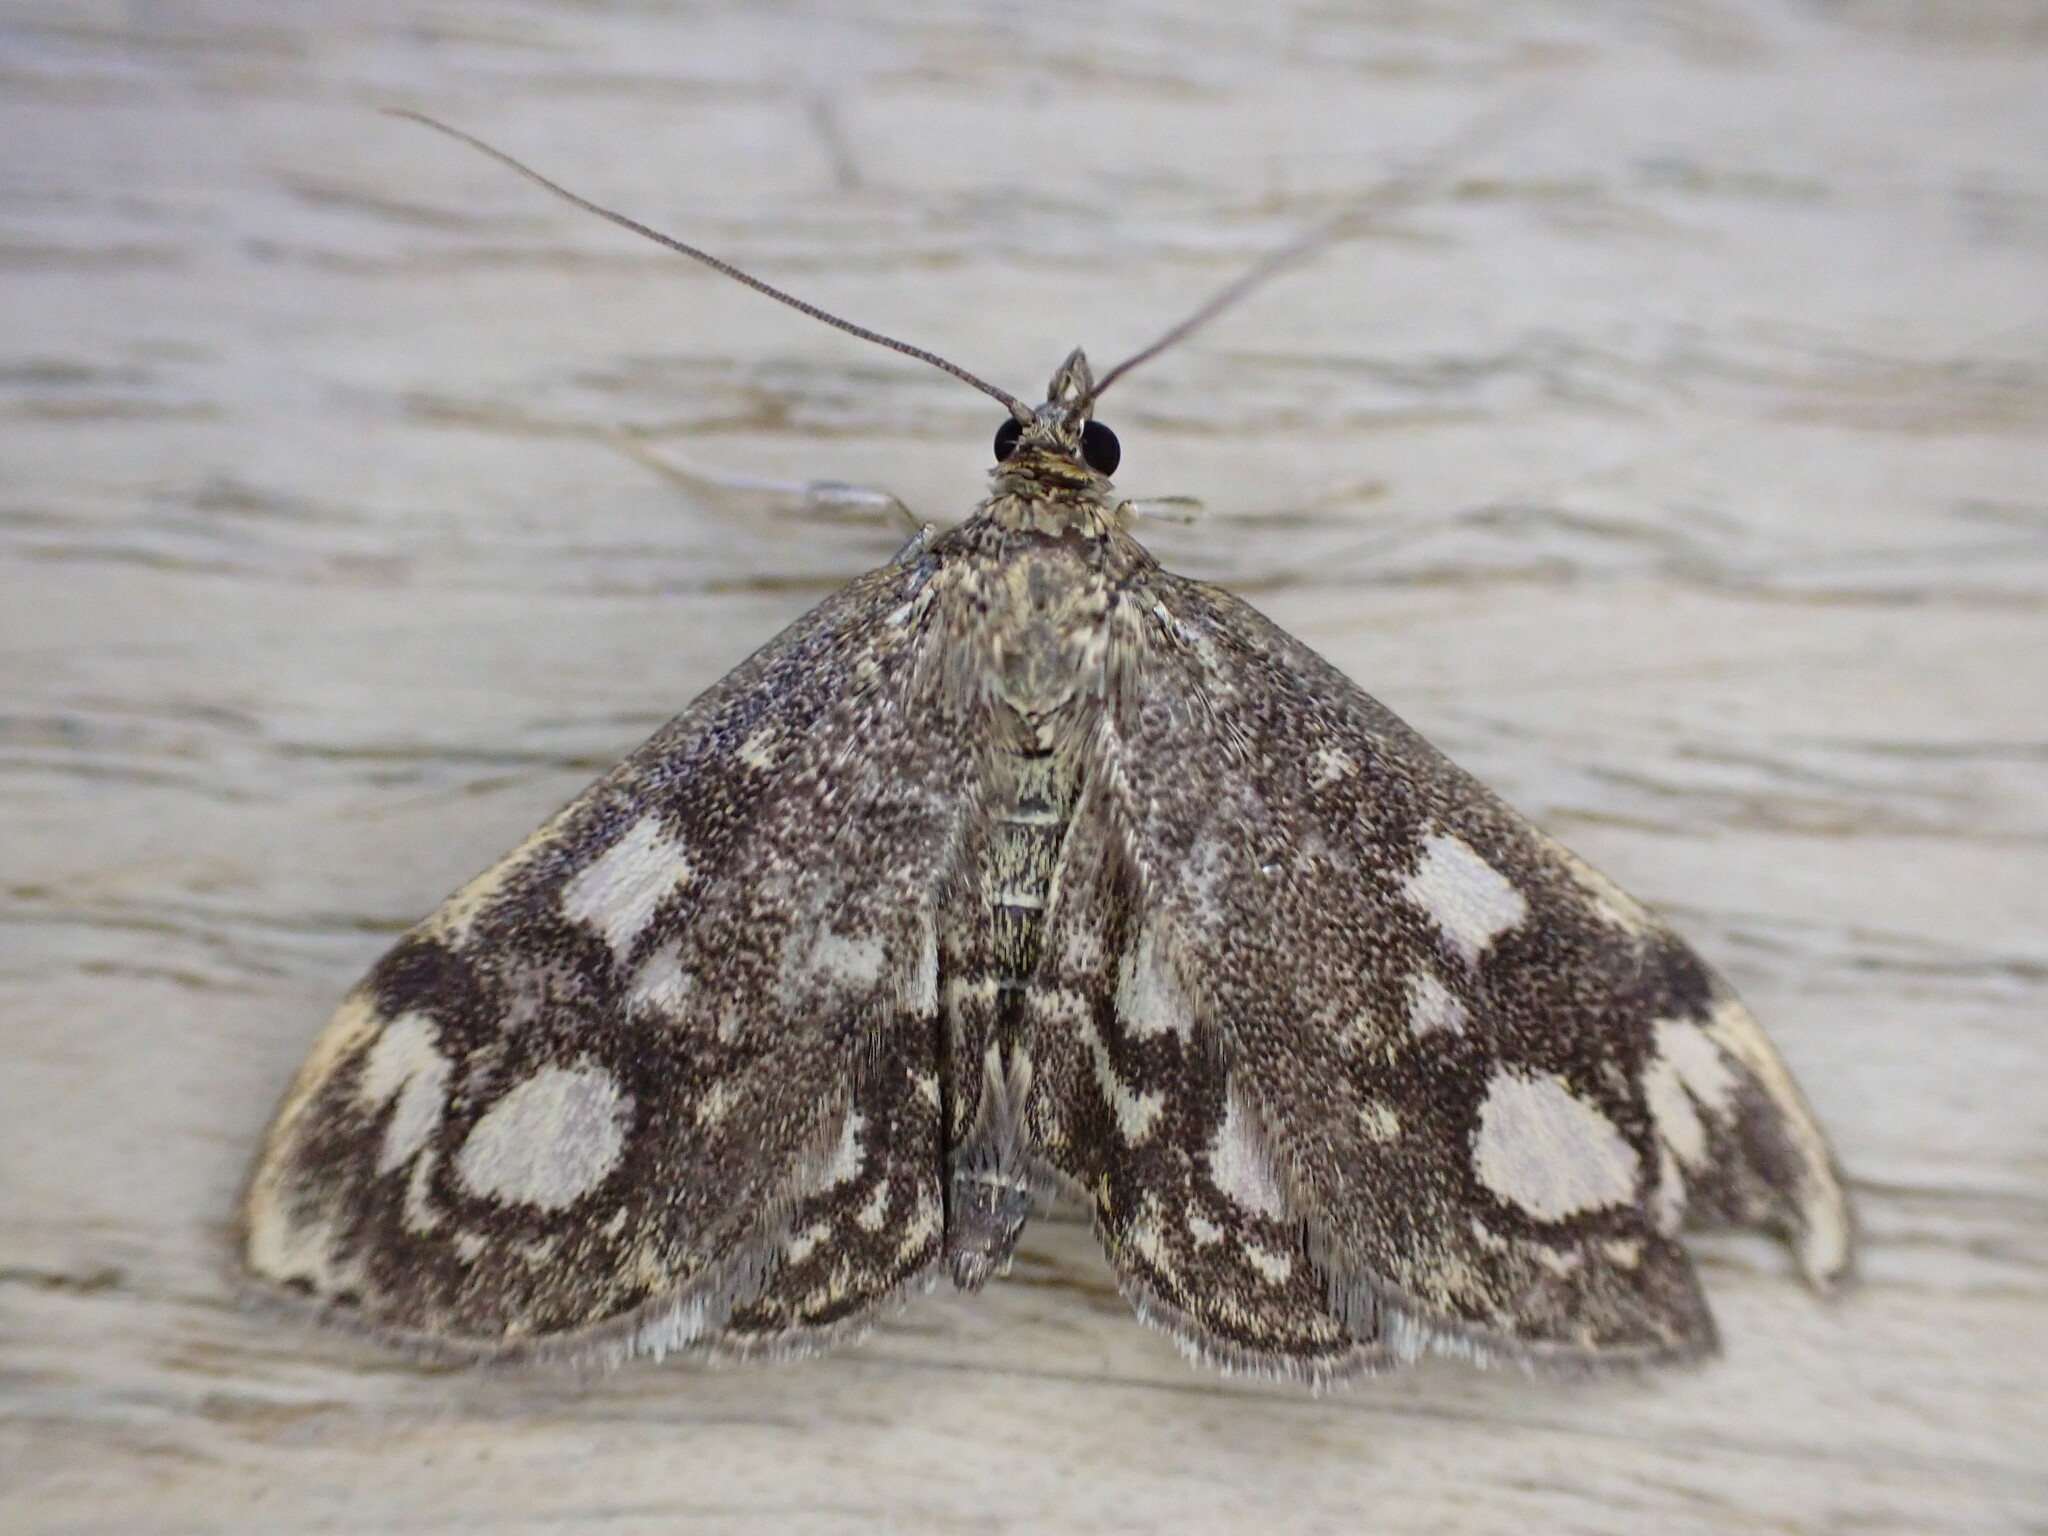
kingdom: Animalia
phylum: Arthropoda
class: Insecta
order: Lepidoptera
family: Crambidae
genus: Anania
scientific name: Anania coronata
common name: Elder pearl
